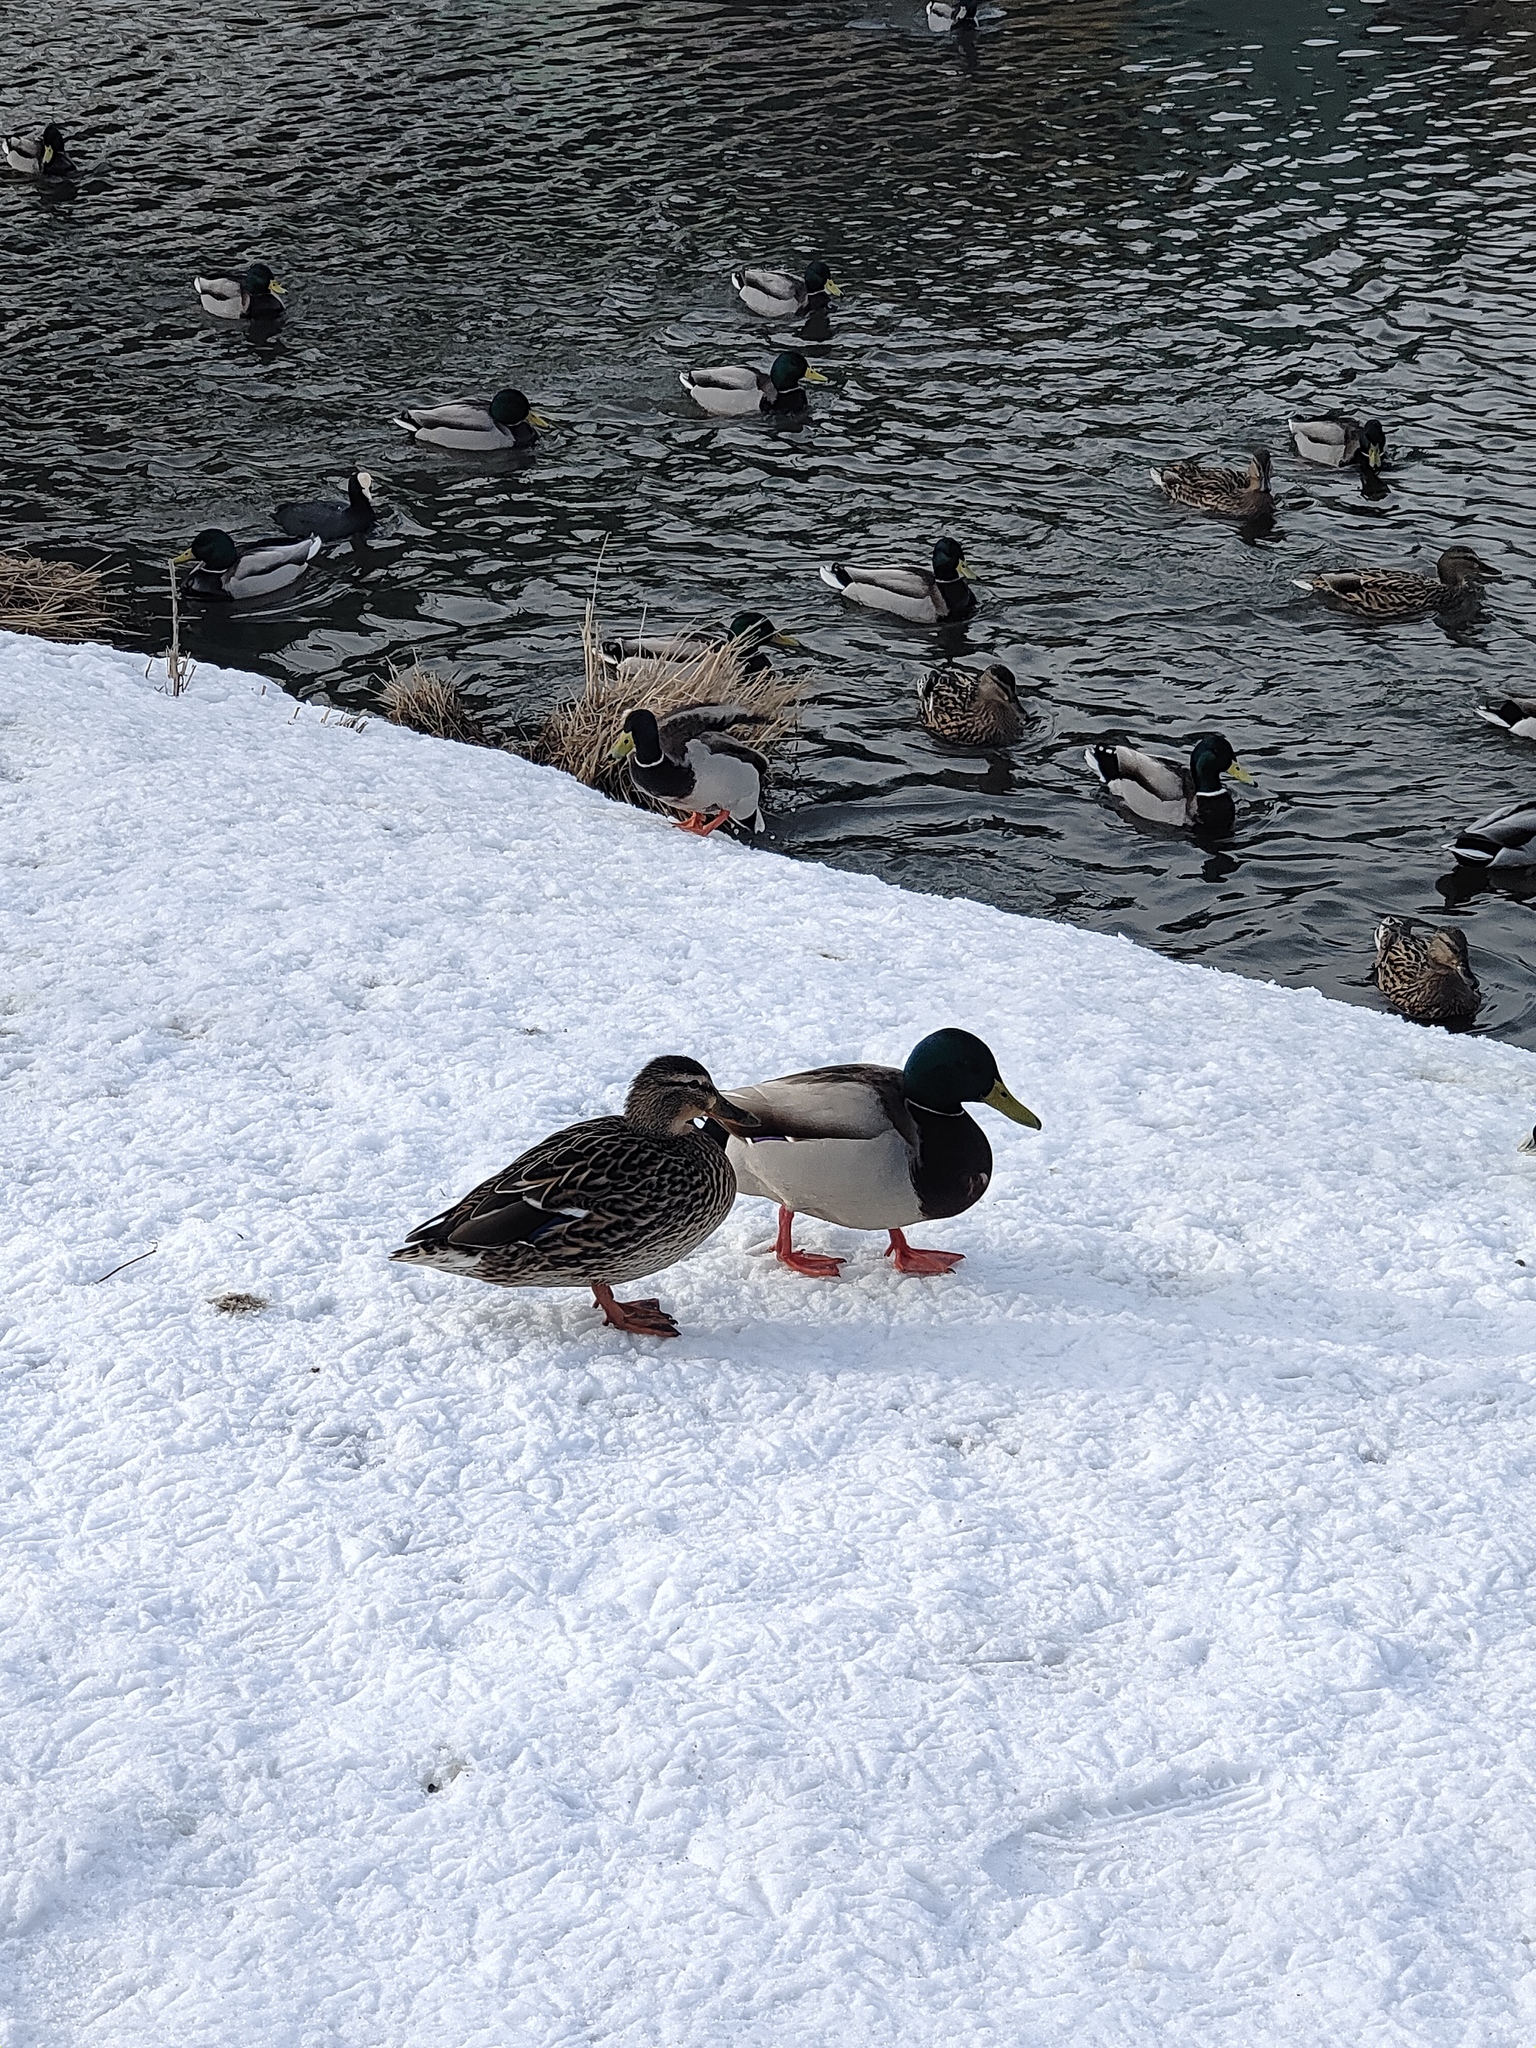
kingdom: Animalia
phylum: Chordata
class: Aves
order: Anseriformes
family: Anatidae
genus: Anas
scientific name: Anas platyrhynchos
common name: Mallard
